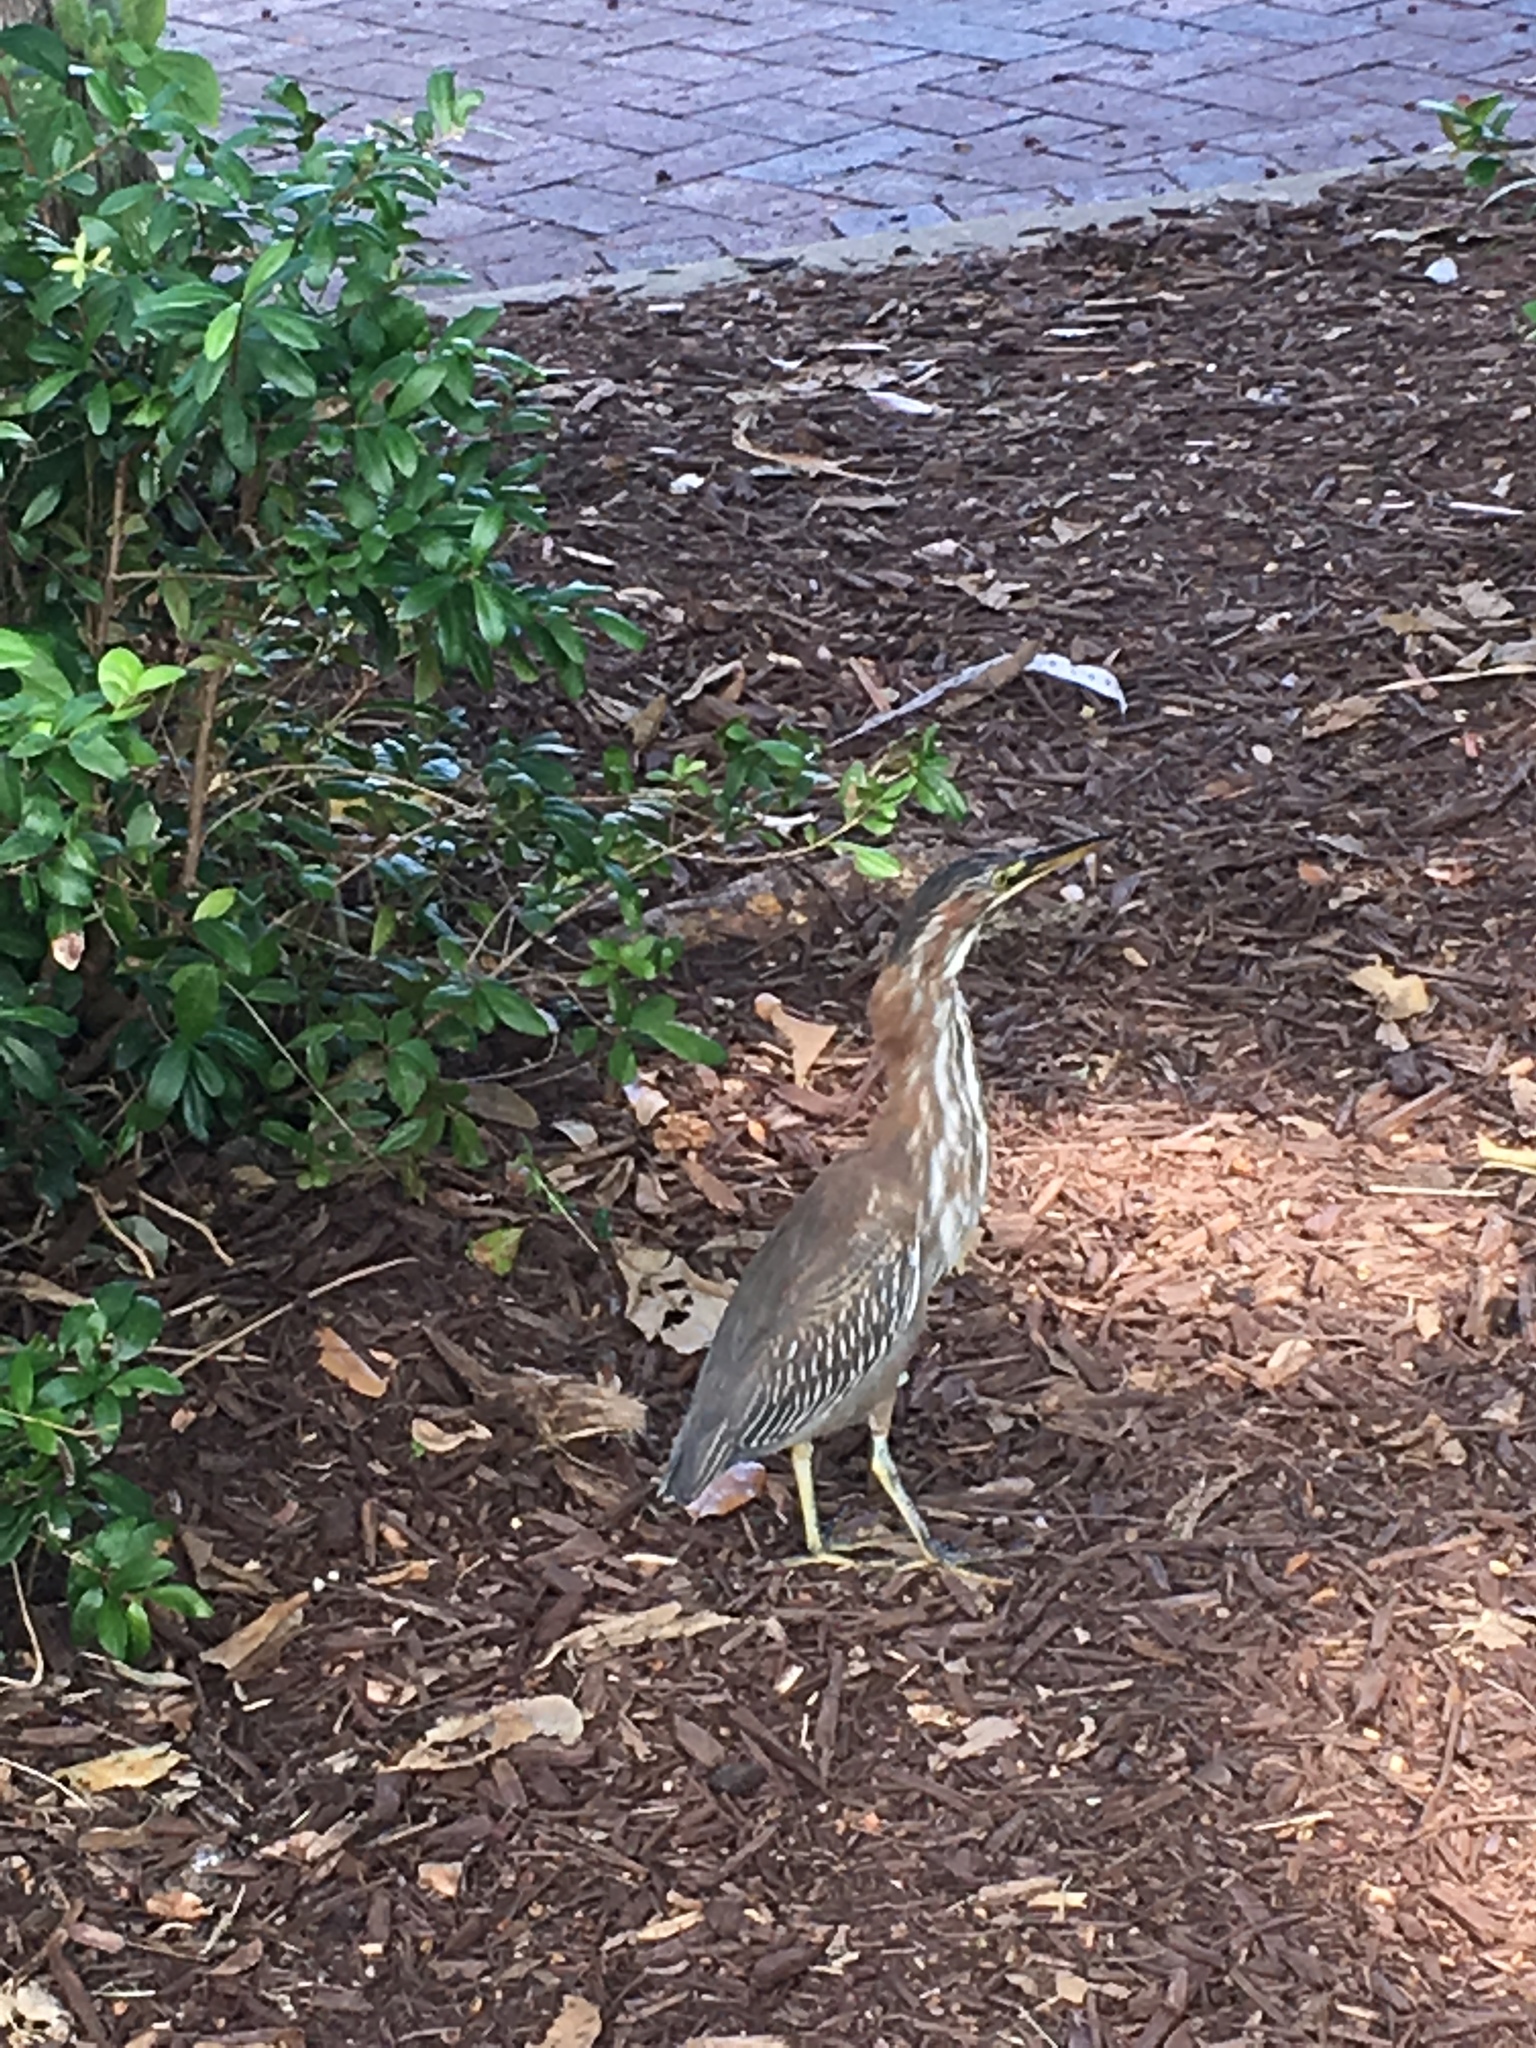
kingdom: Animalia
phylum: Chordata
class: Aves
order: Pelecaniformes
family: Ardeidae
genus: Butorides
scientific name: Butorides virescens
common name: Green heron
